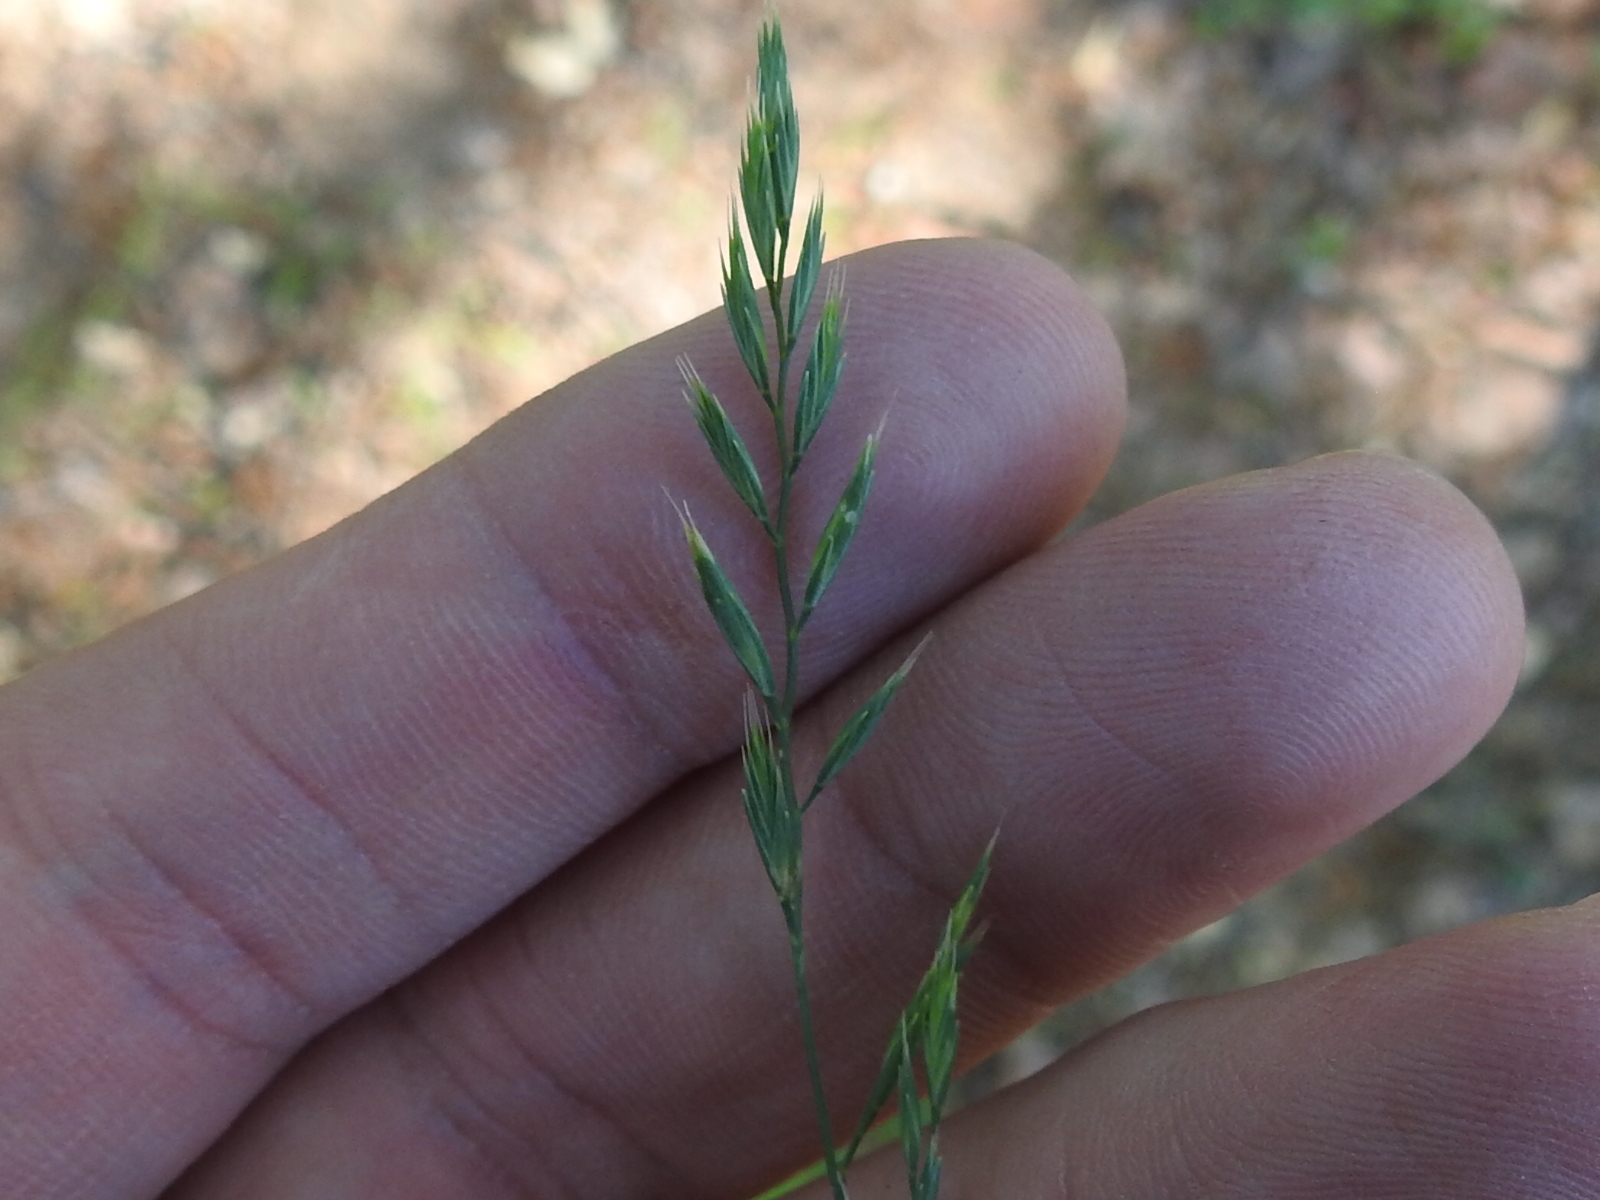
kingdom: Plantae
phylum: Tracheophyta
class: Liliopsida
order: Poales
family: Poaceae
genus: Festuca
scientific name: Festuca octoflora
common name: Sixweeks grass
